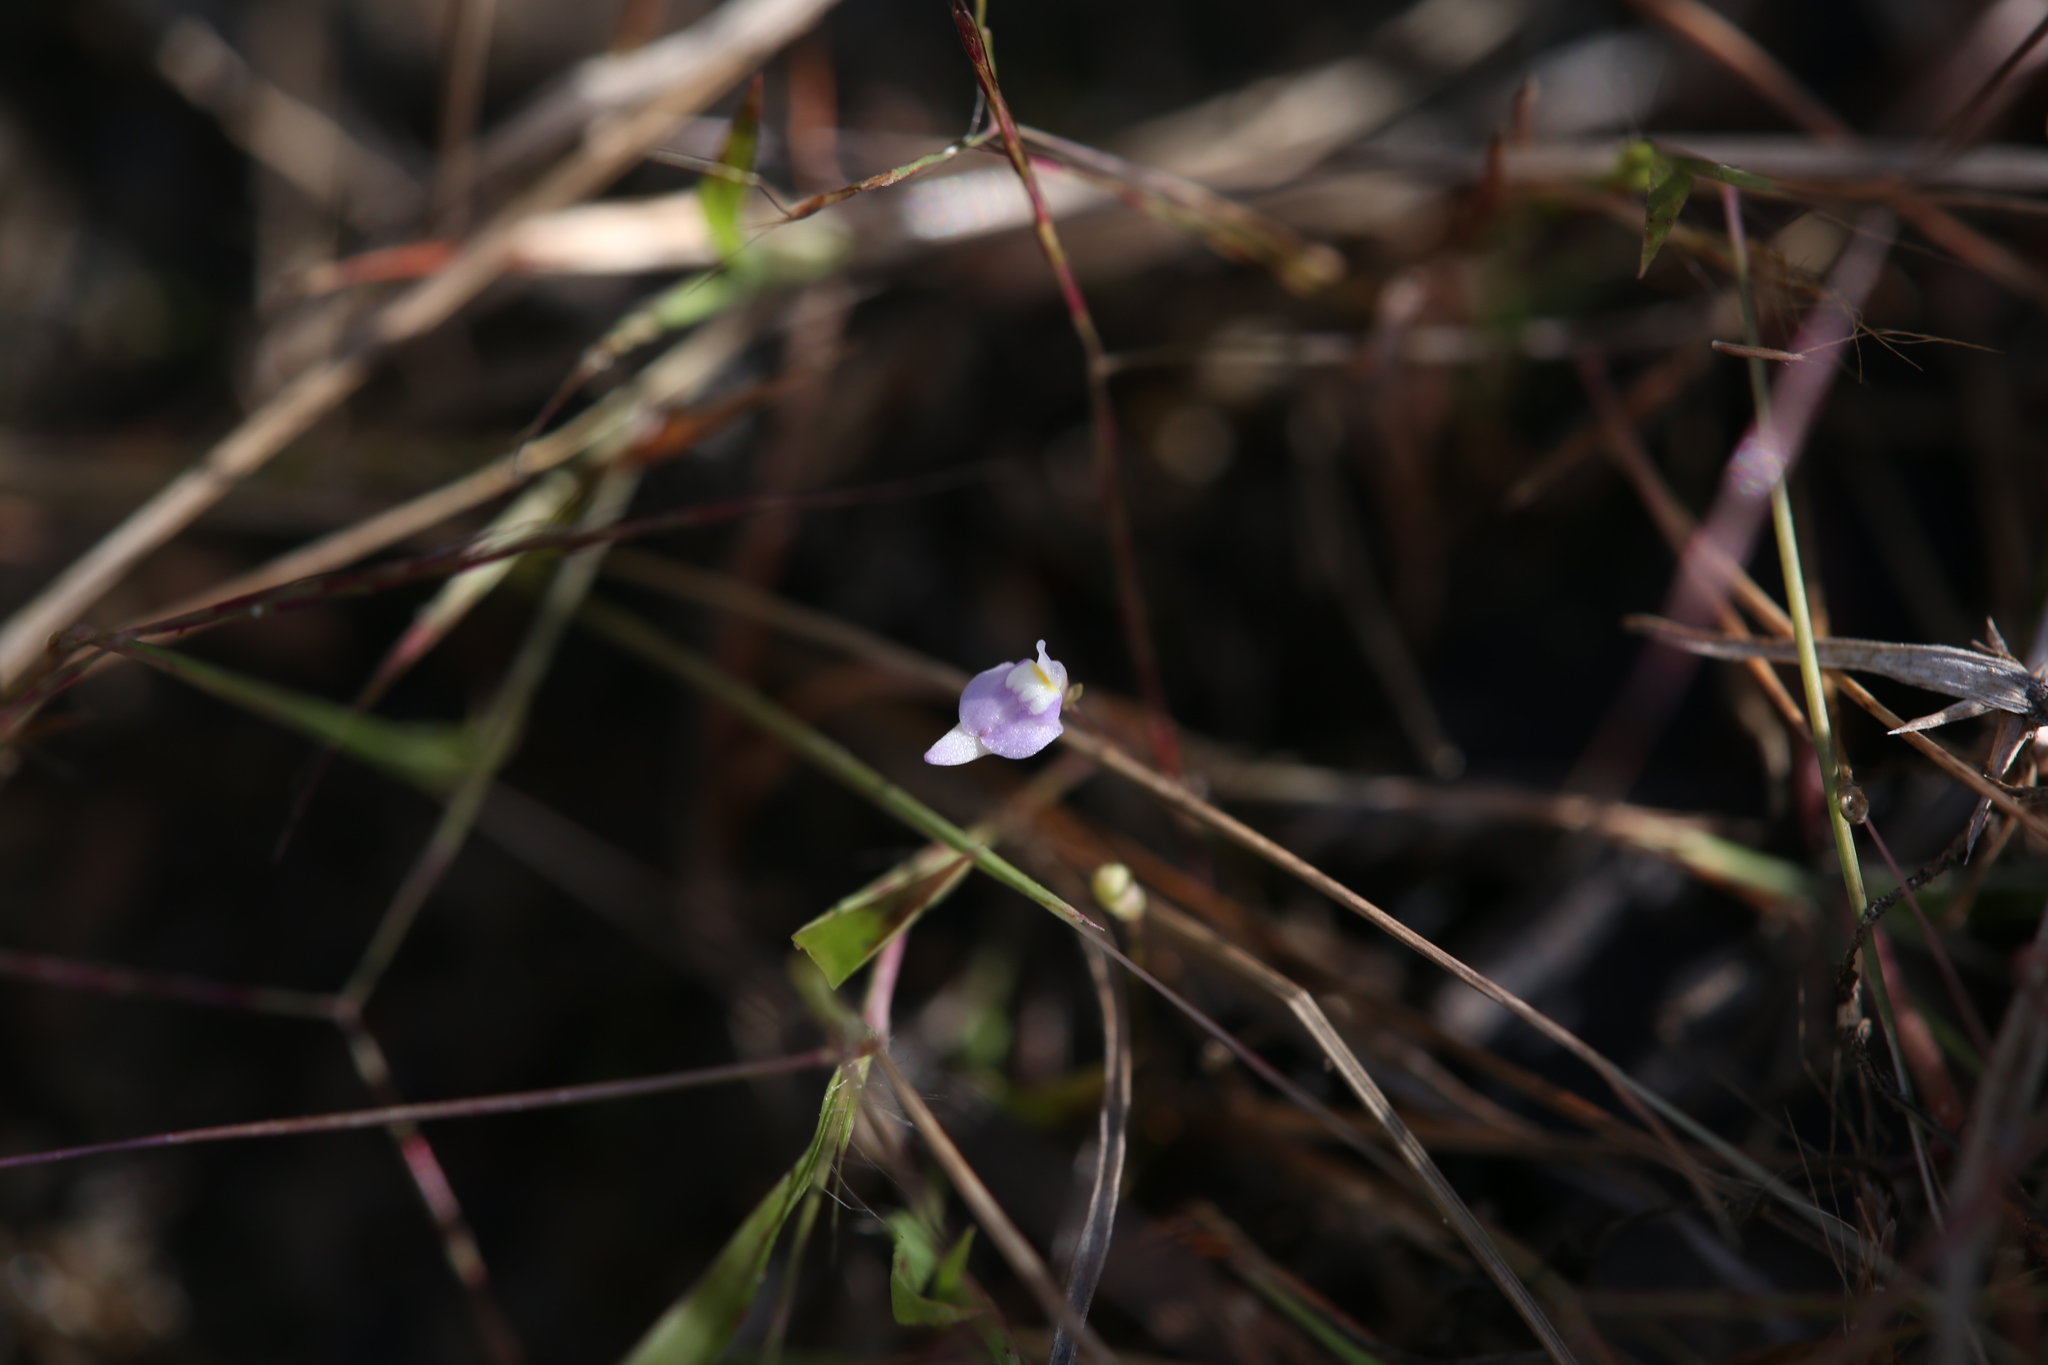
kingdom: Plantae
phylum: Tracheophyta
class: Magnoliopsida
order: Lamiales
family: Lentibulariaceae
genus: Utricularia
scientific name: Utricularia caerulea
